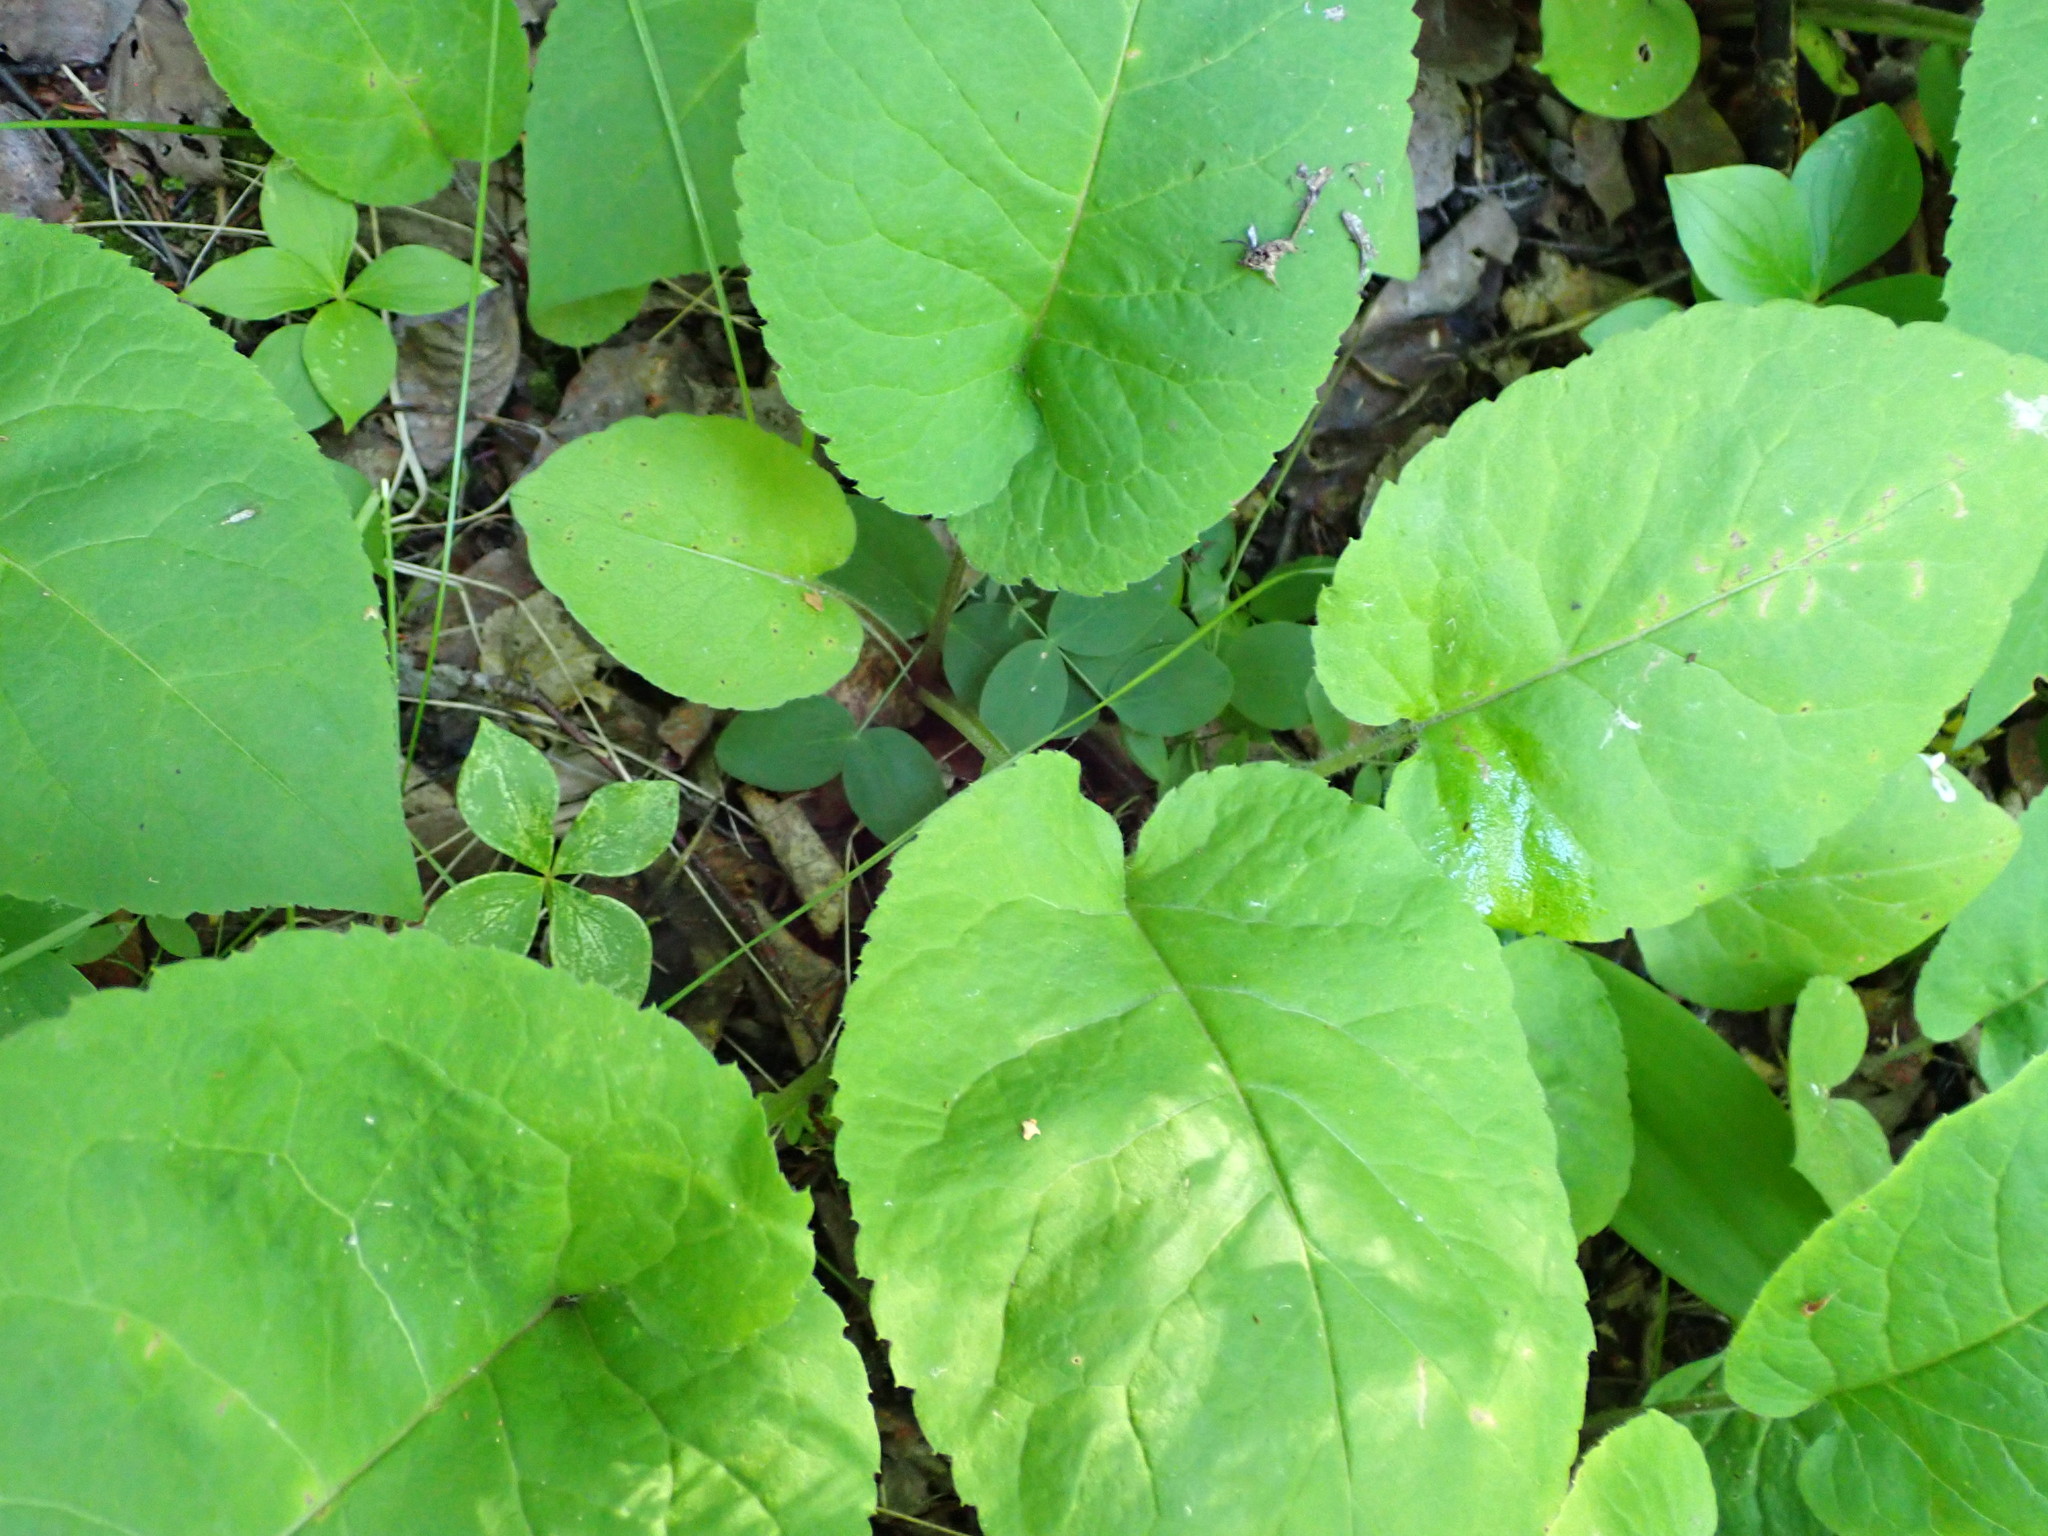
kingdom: Plantae
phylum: Tracheophyta
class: Magnoliopsida
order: Asterales
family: Asteraceae
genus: Eurybia
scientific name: Eurybia macrophylla
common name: Big-leaved aster
